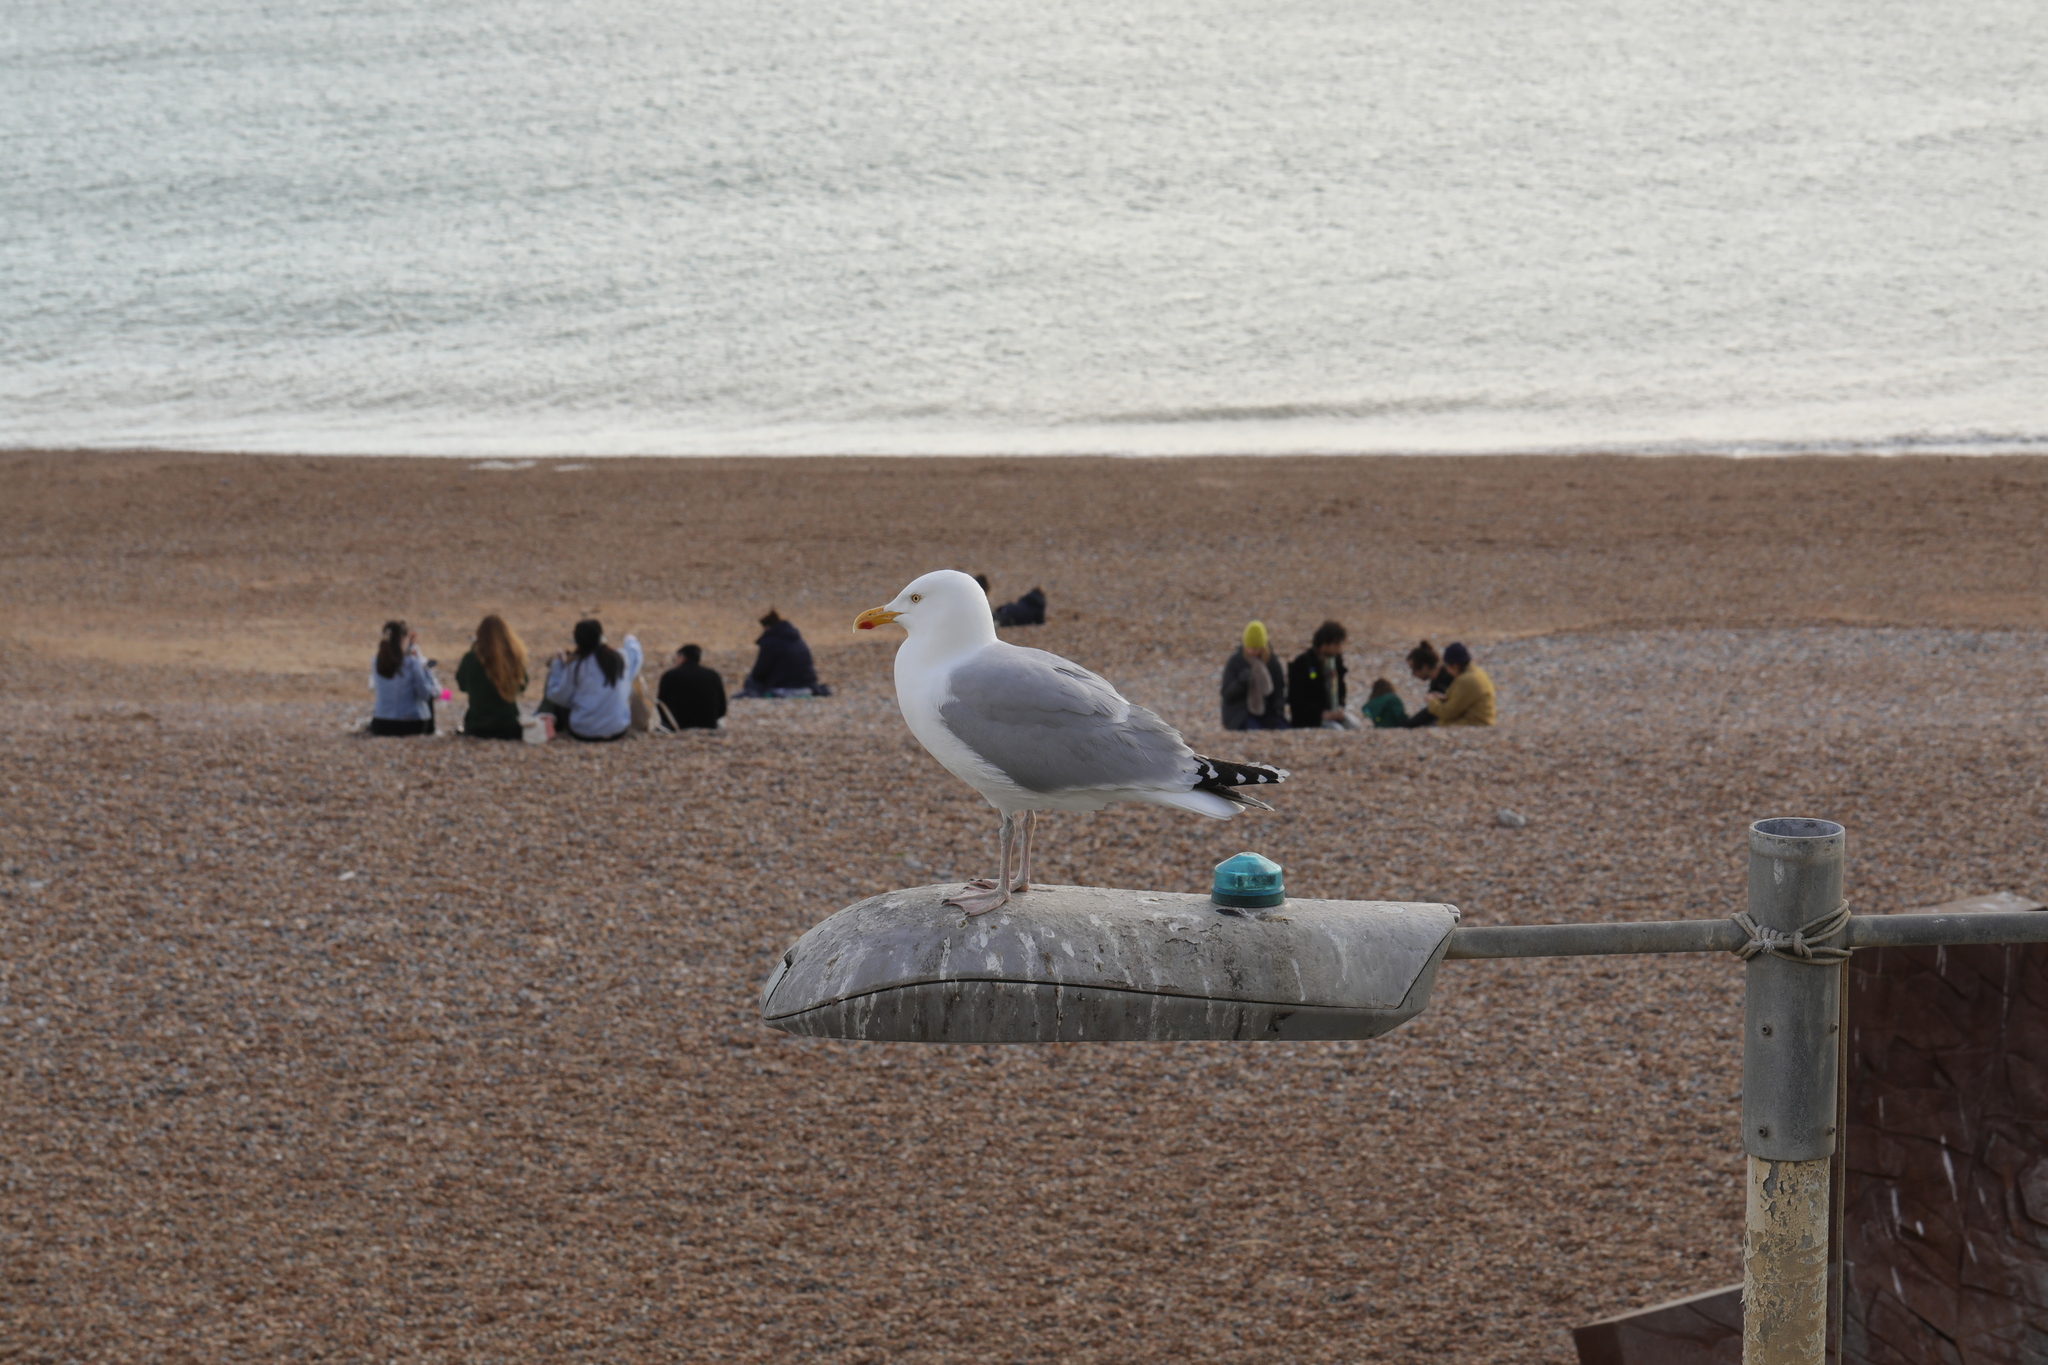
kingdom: Animalia
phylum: Chordata
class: Aves
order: Charadriiformes
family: Laridae
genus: Larus
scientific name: Larus argentatus
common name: Herring gull
